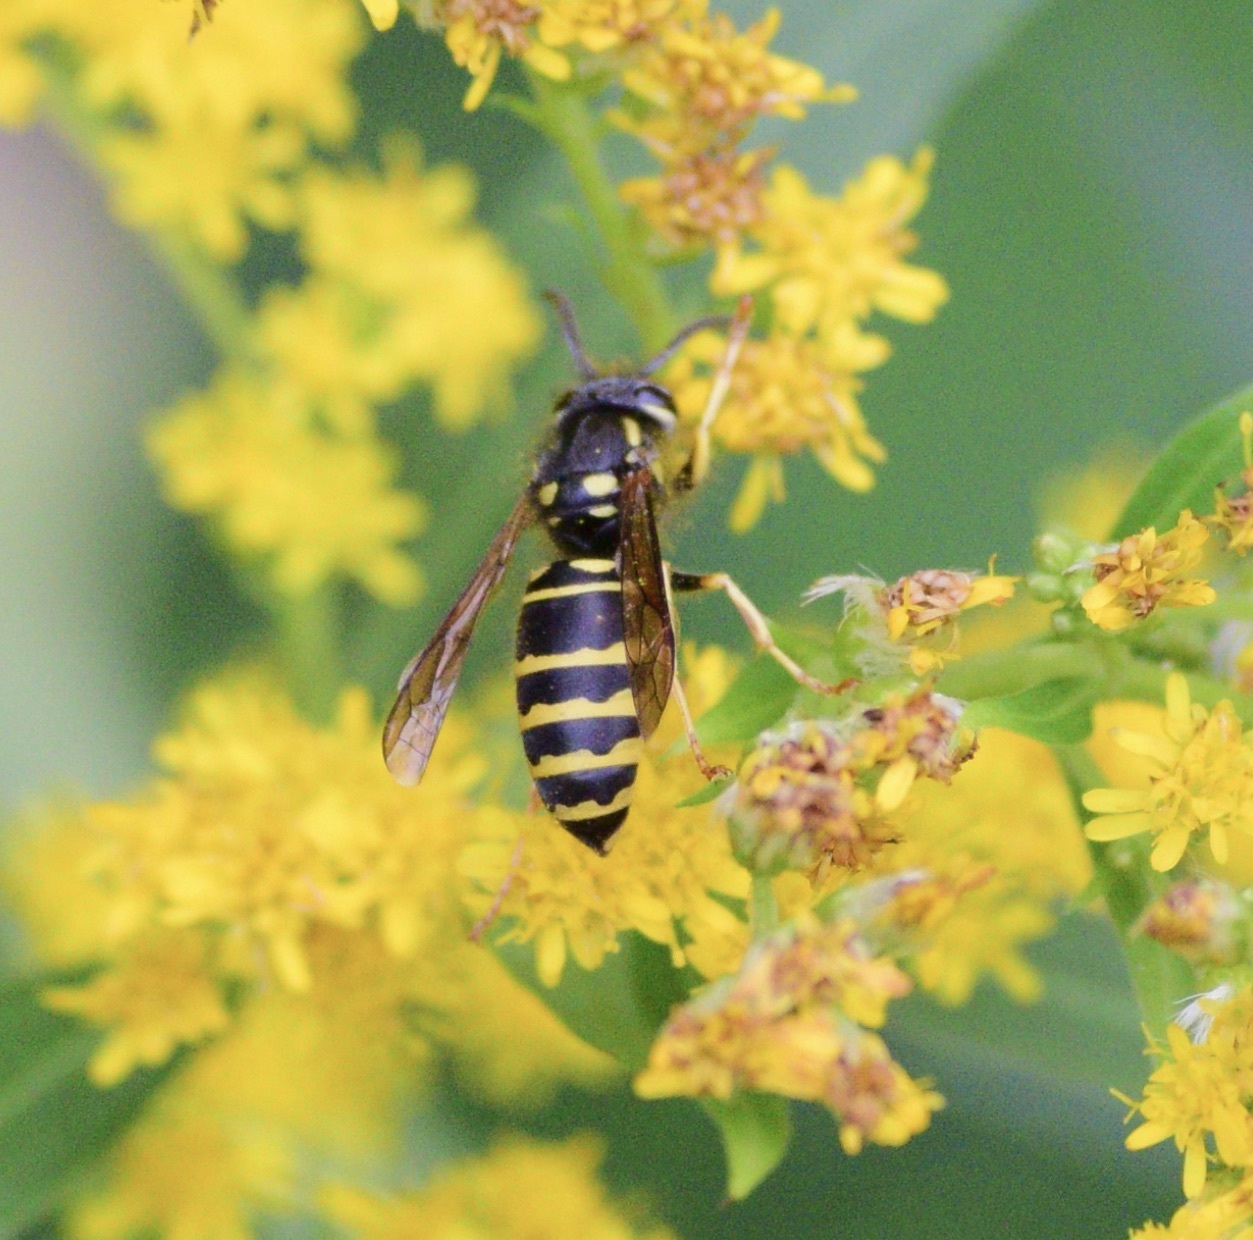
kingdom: Animalia
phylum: Arthropoda
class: Insecta
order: Hymenoptera
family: Vespidae
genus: Vespula
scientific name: Vespula acadica
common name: Forest yellowjacket
